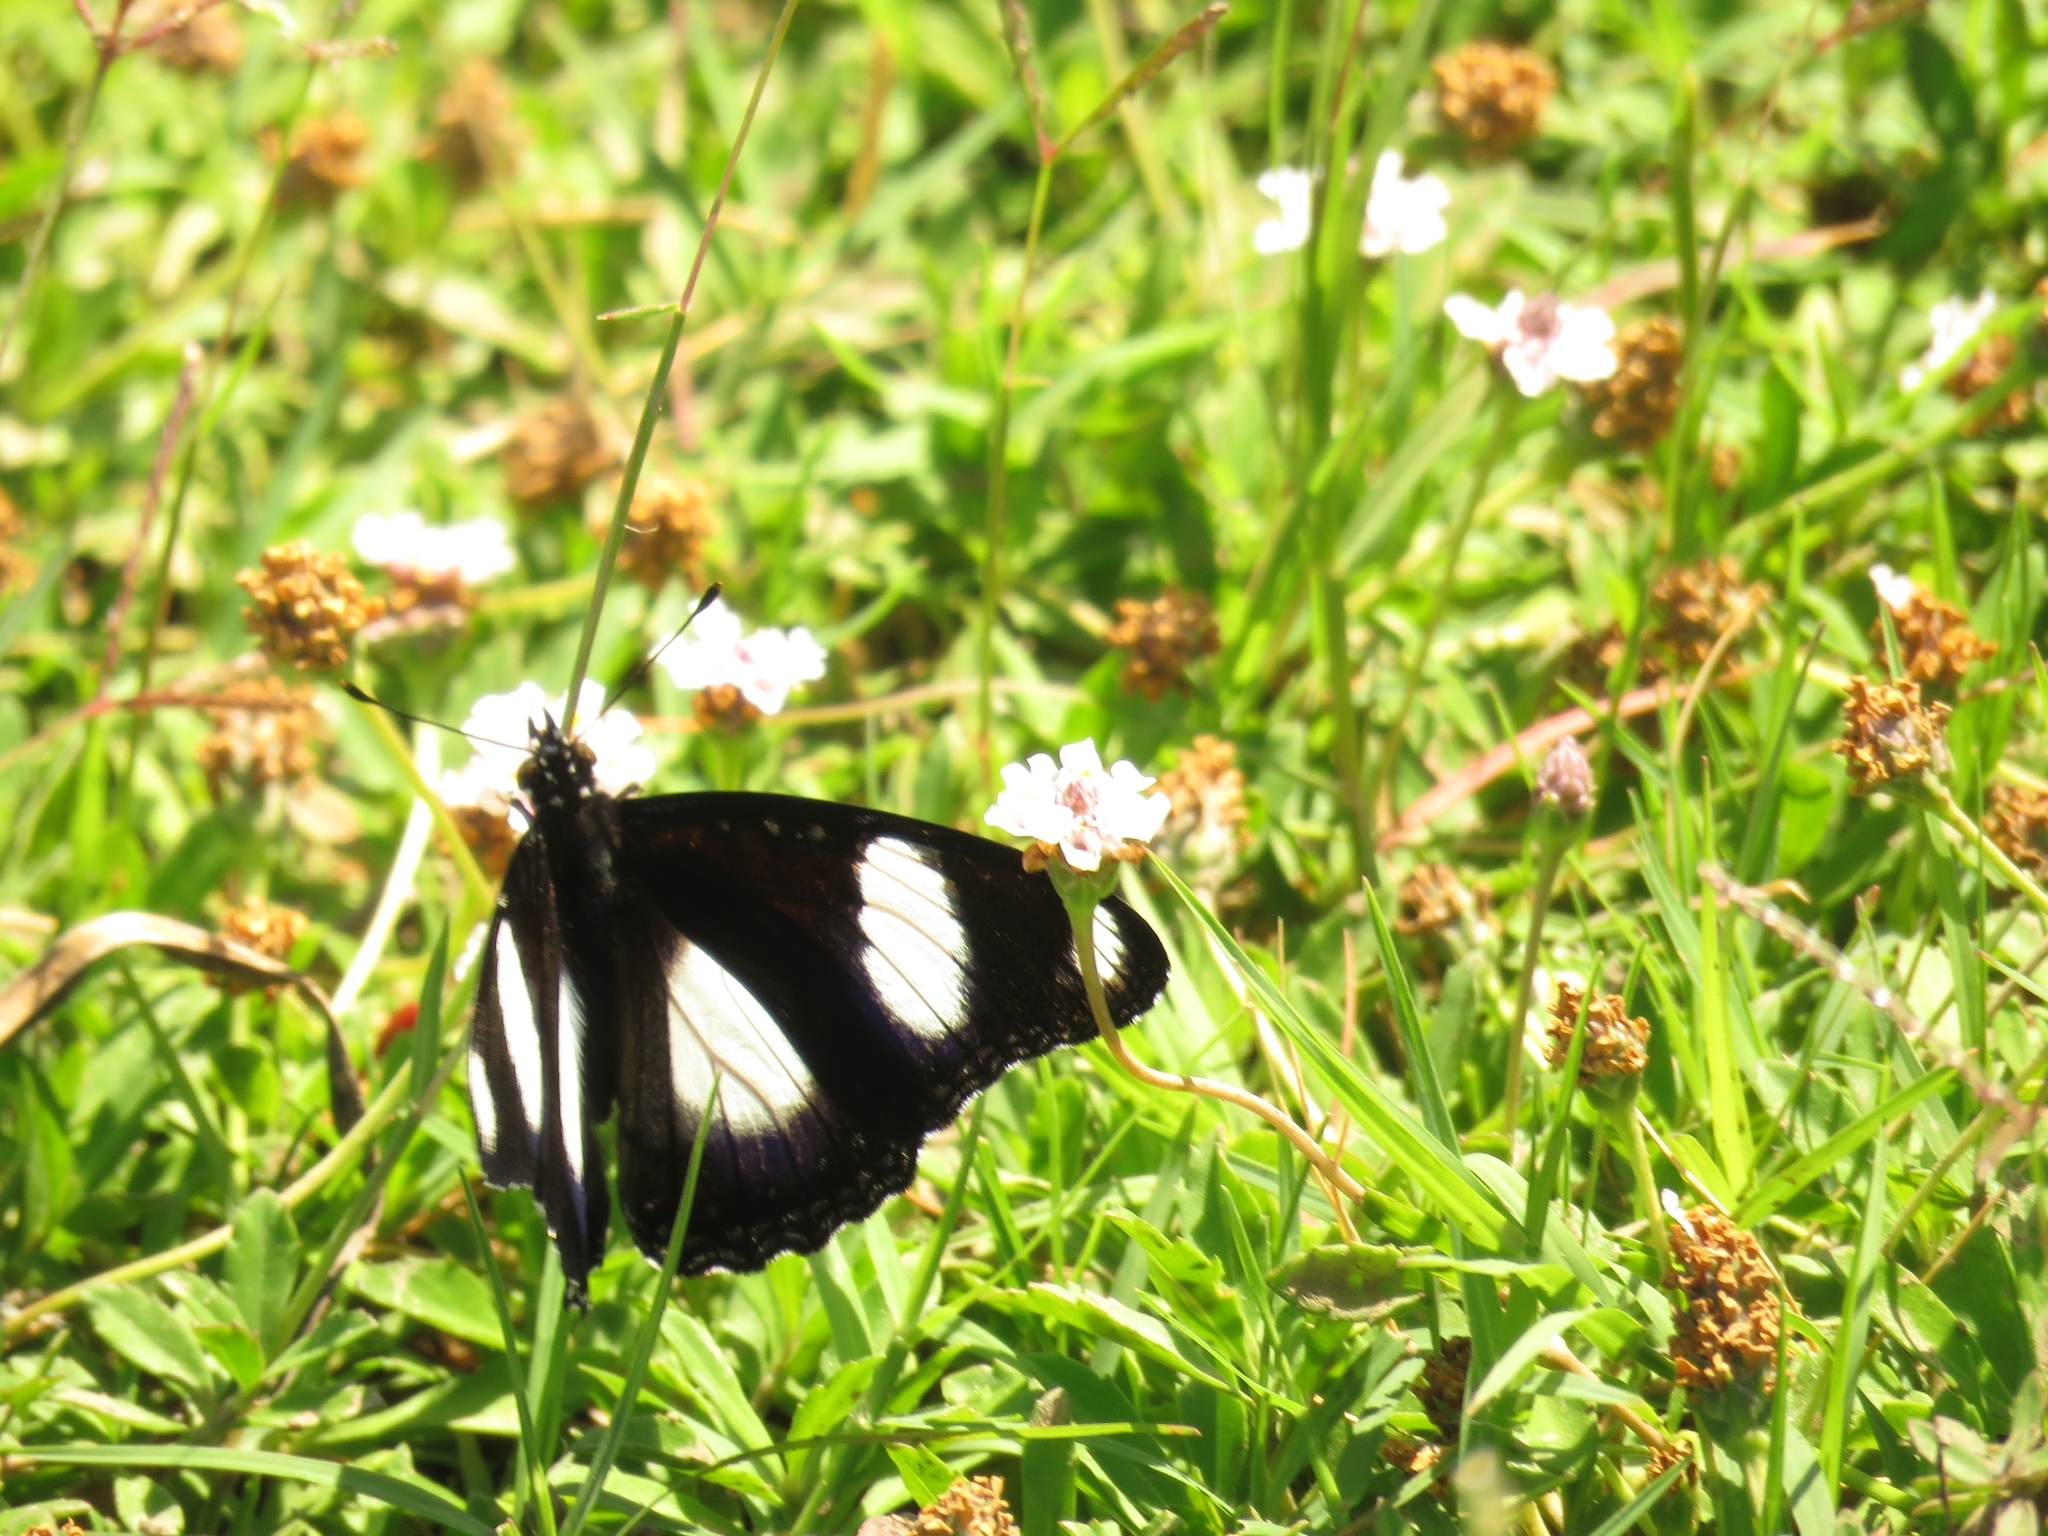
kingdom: Animalia
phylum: Arthropoda
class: Insecta
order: Lepidoptera
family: Nymphalidae
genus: Hypolimnas
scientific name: Hypolimnas misippus
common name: False plain tiger
